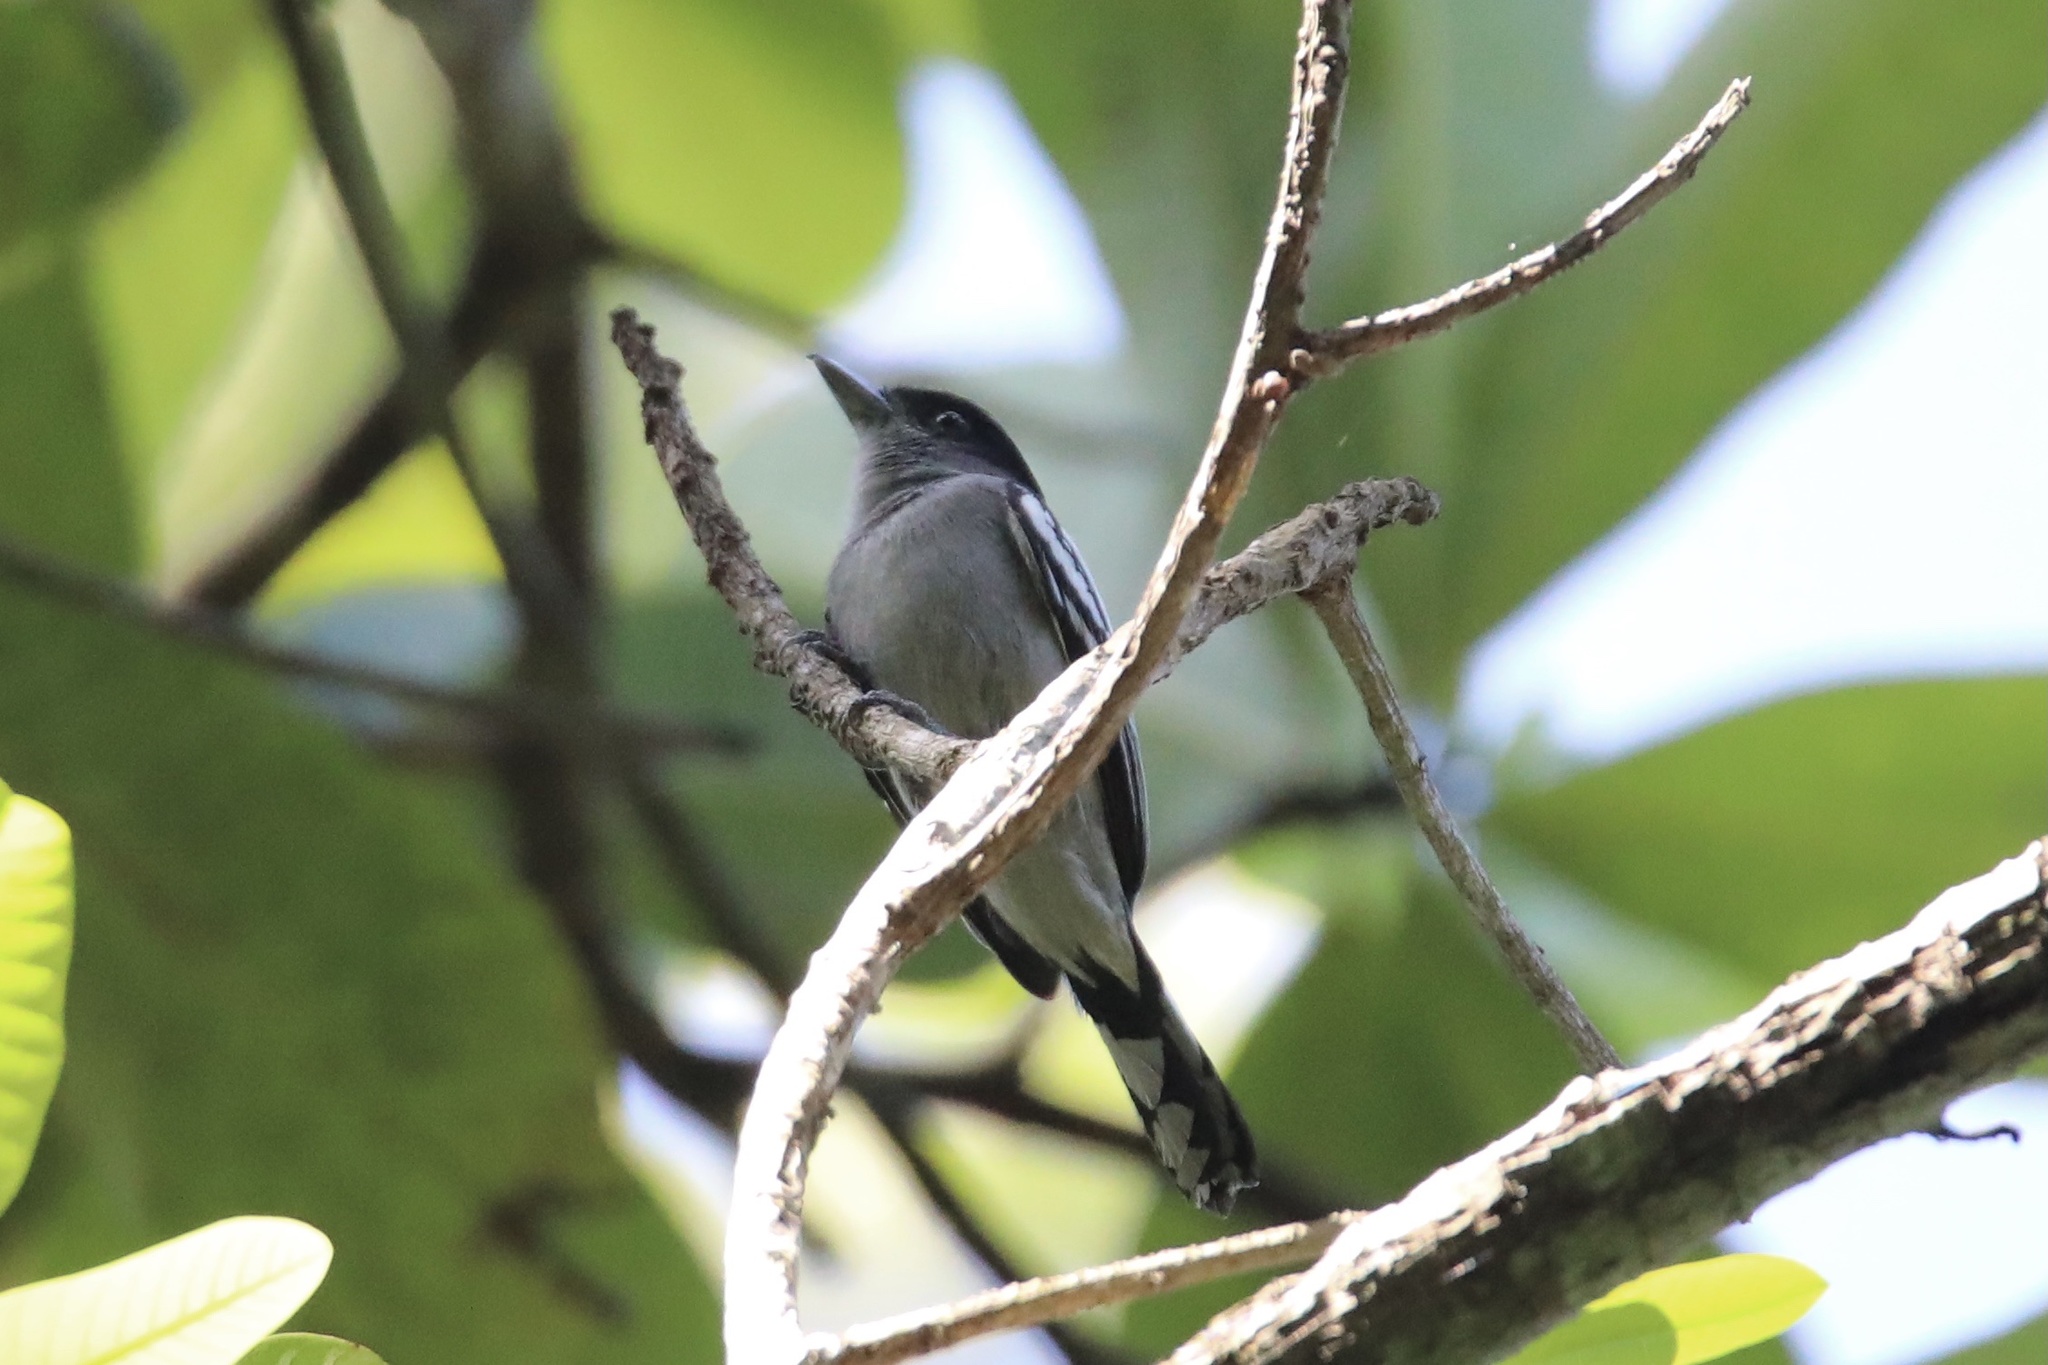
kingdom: Animalia
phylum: Chordata
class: Aves
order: Passeriformes
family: Cotingidae
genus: Pachyramphus
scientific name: Pachyramphus polychopterus
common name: White-winged becard
